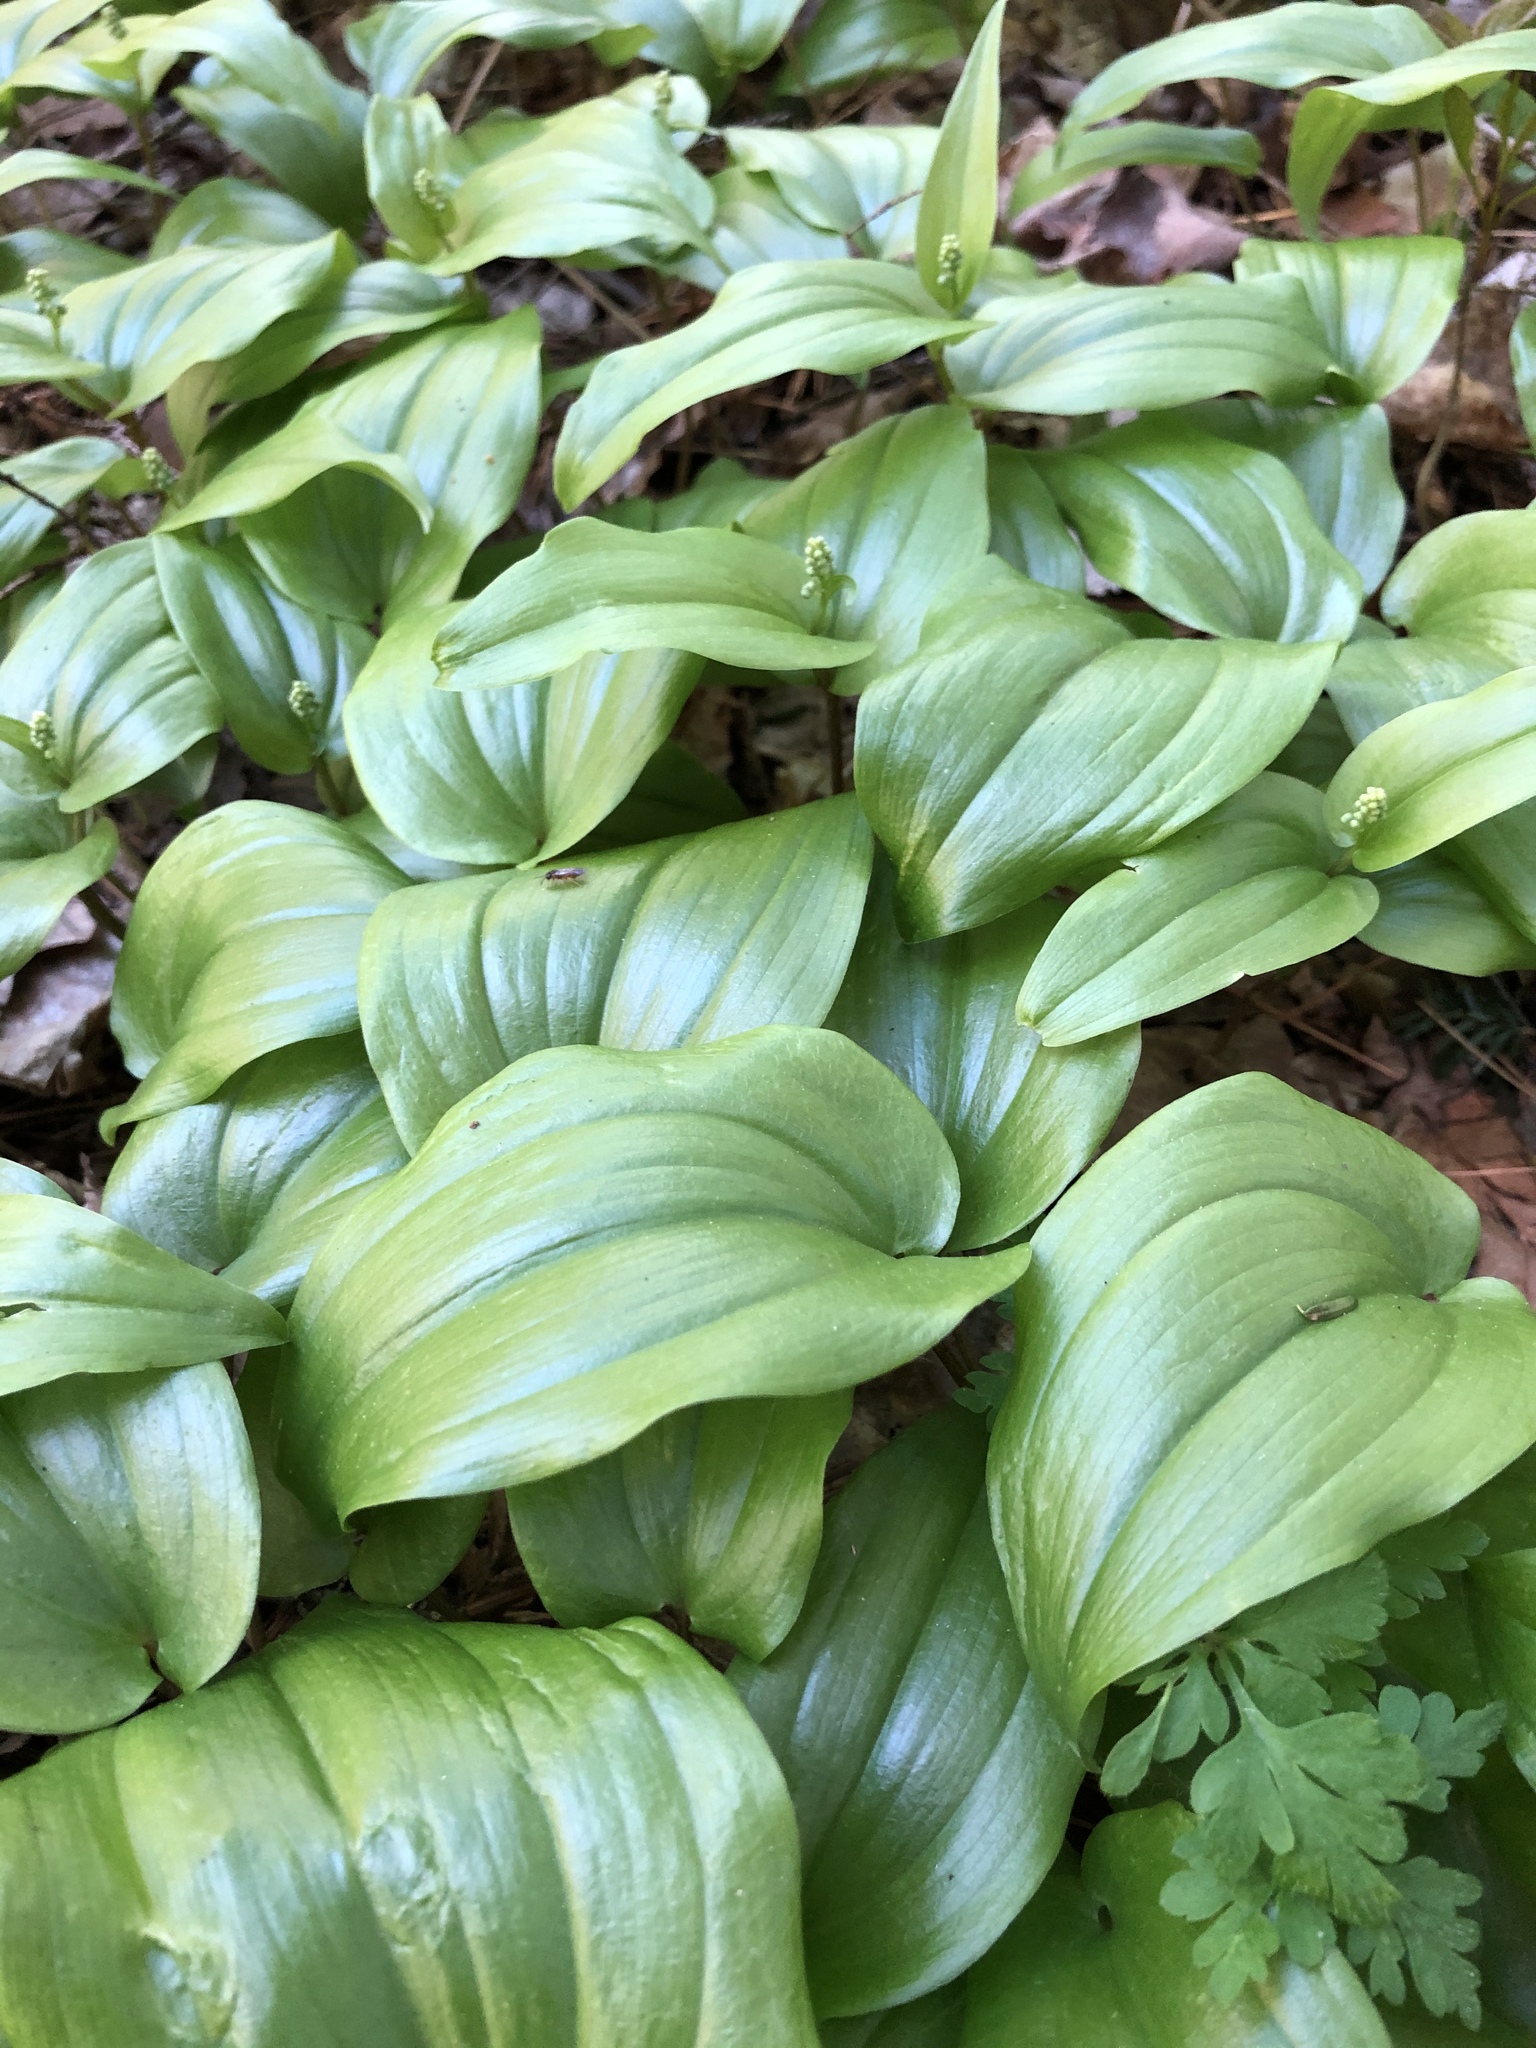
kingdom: Plantae
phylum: Tracheophyta
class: Liliopsida
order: Asparagales
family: Asparagaceae
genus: Maianthemum
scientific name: Maianthemum canadense
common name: False lily-of-the-valley
